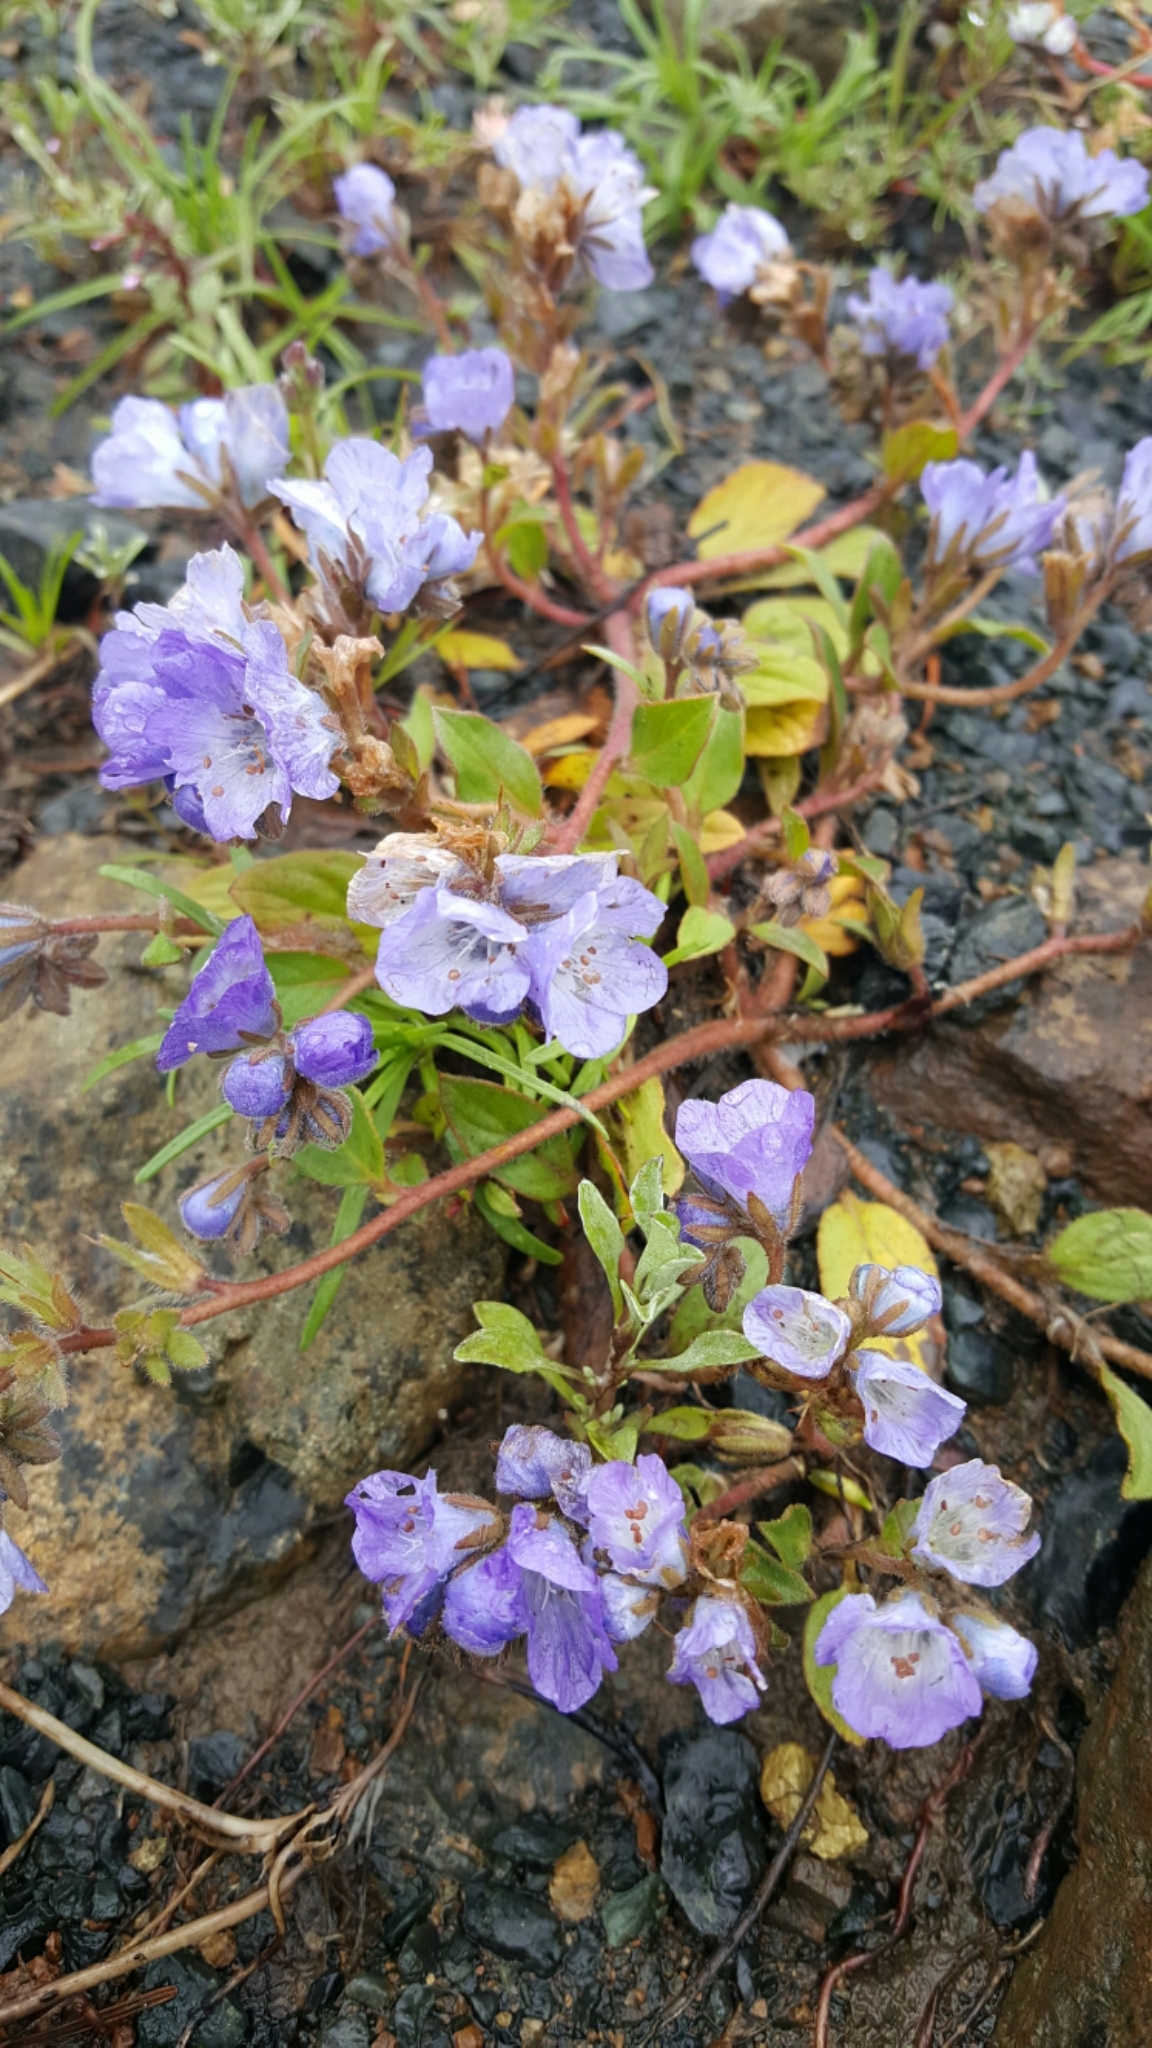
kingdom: Plantae
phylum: Tracheophyta
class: Magnoliopsida
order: Boraginales
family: Hydrophyllaceae
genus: Phacelia
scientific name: Phacelia divaricata
